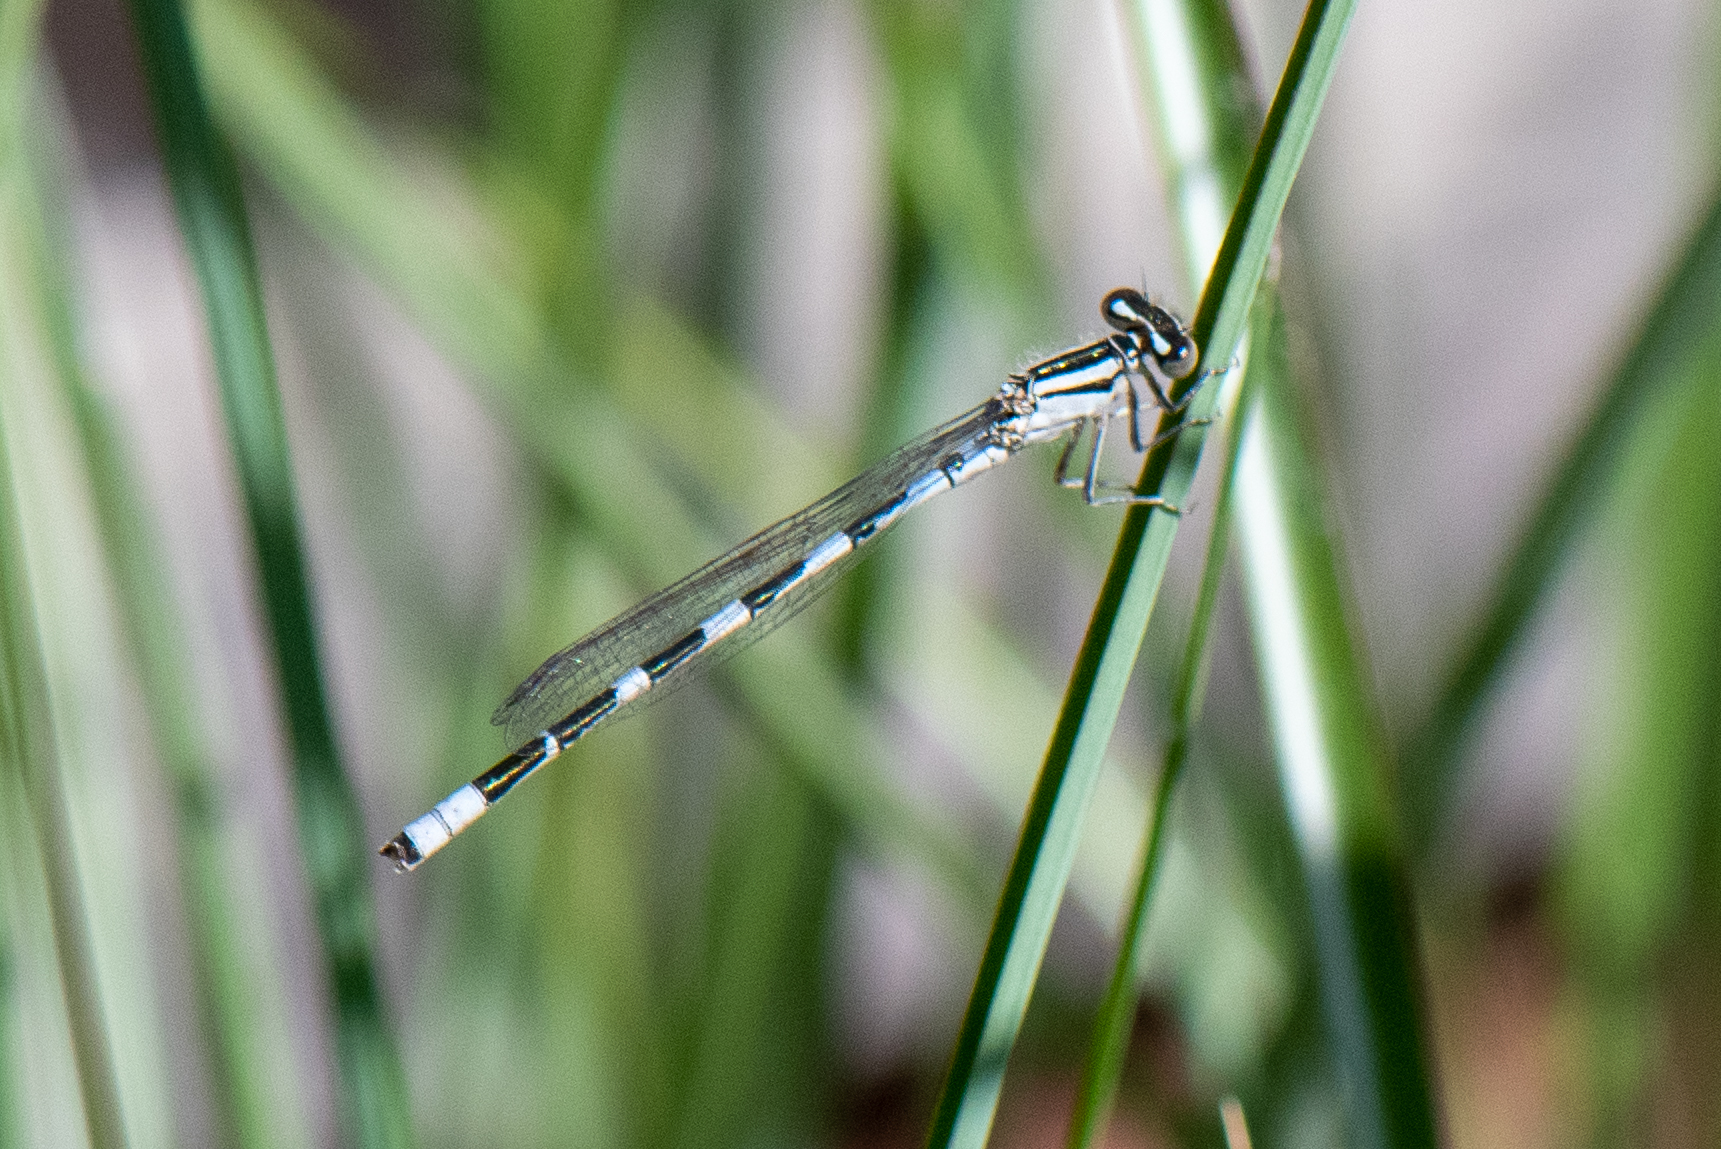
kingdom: Animalia
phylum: Arthropoda
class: Insecta
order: Odonata
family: Coenagrionidae
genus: Enallagma
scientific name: Enallagma carunculatum
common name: Tule bluet
